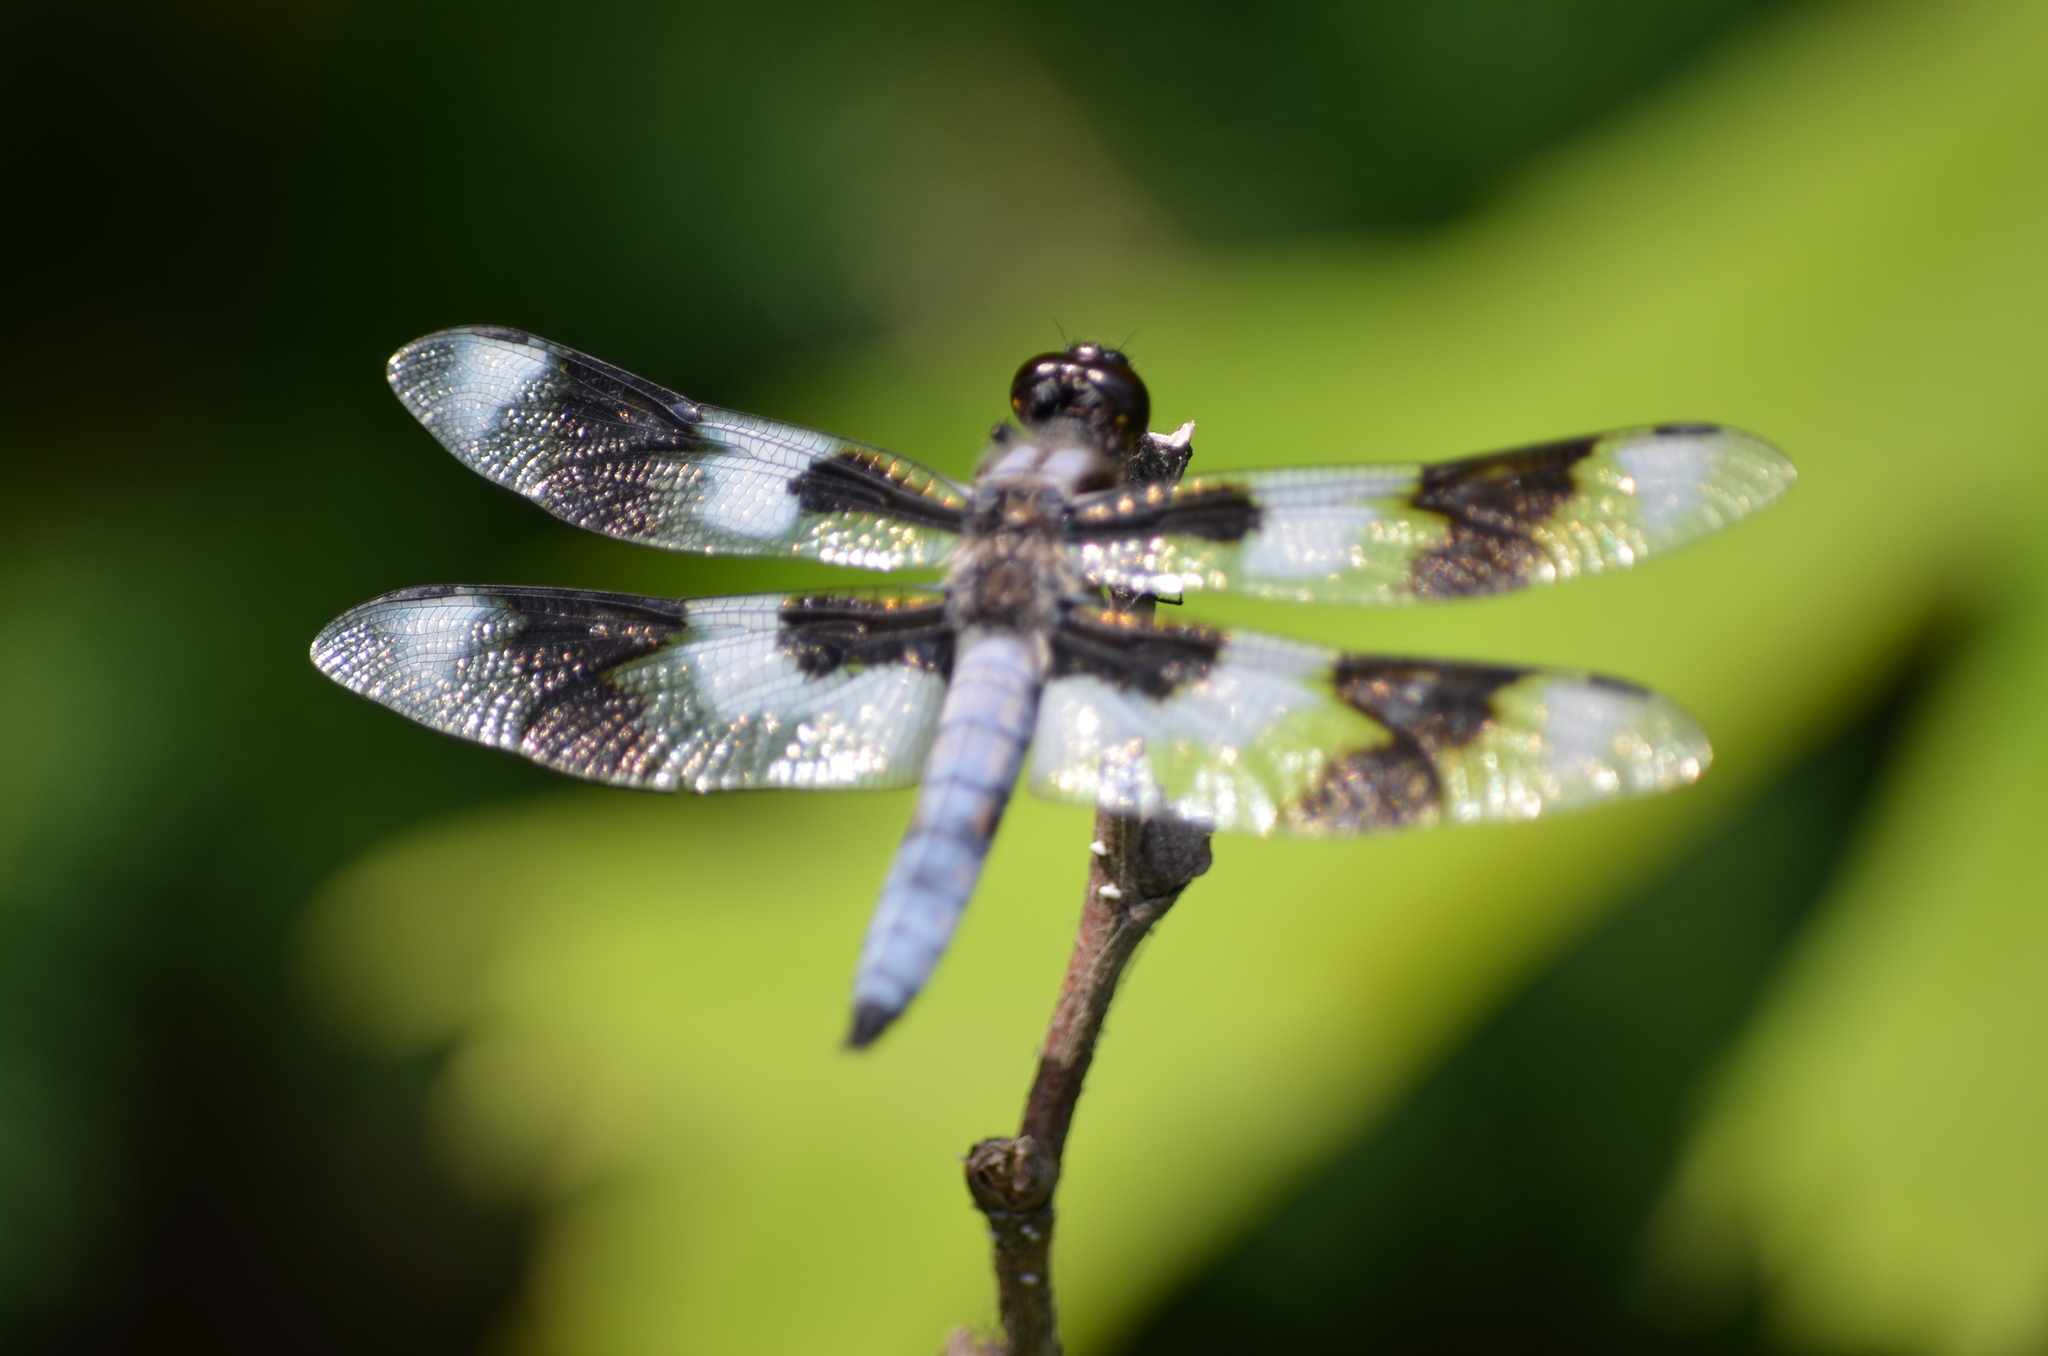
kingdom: Animalia
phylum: Arthropoda
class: Insecta
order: Odonata
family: Libellulidae
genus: Libellula
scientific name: Libellula forensis
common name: Eight-spotted skimmer
